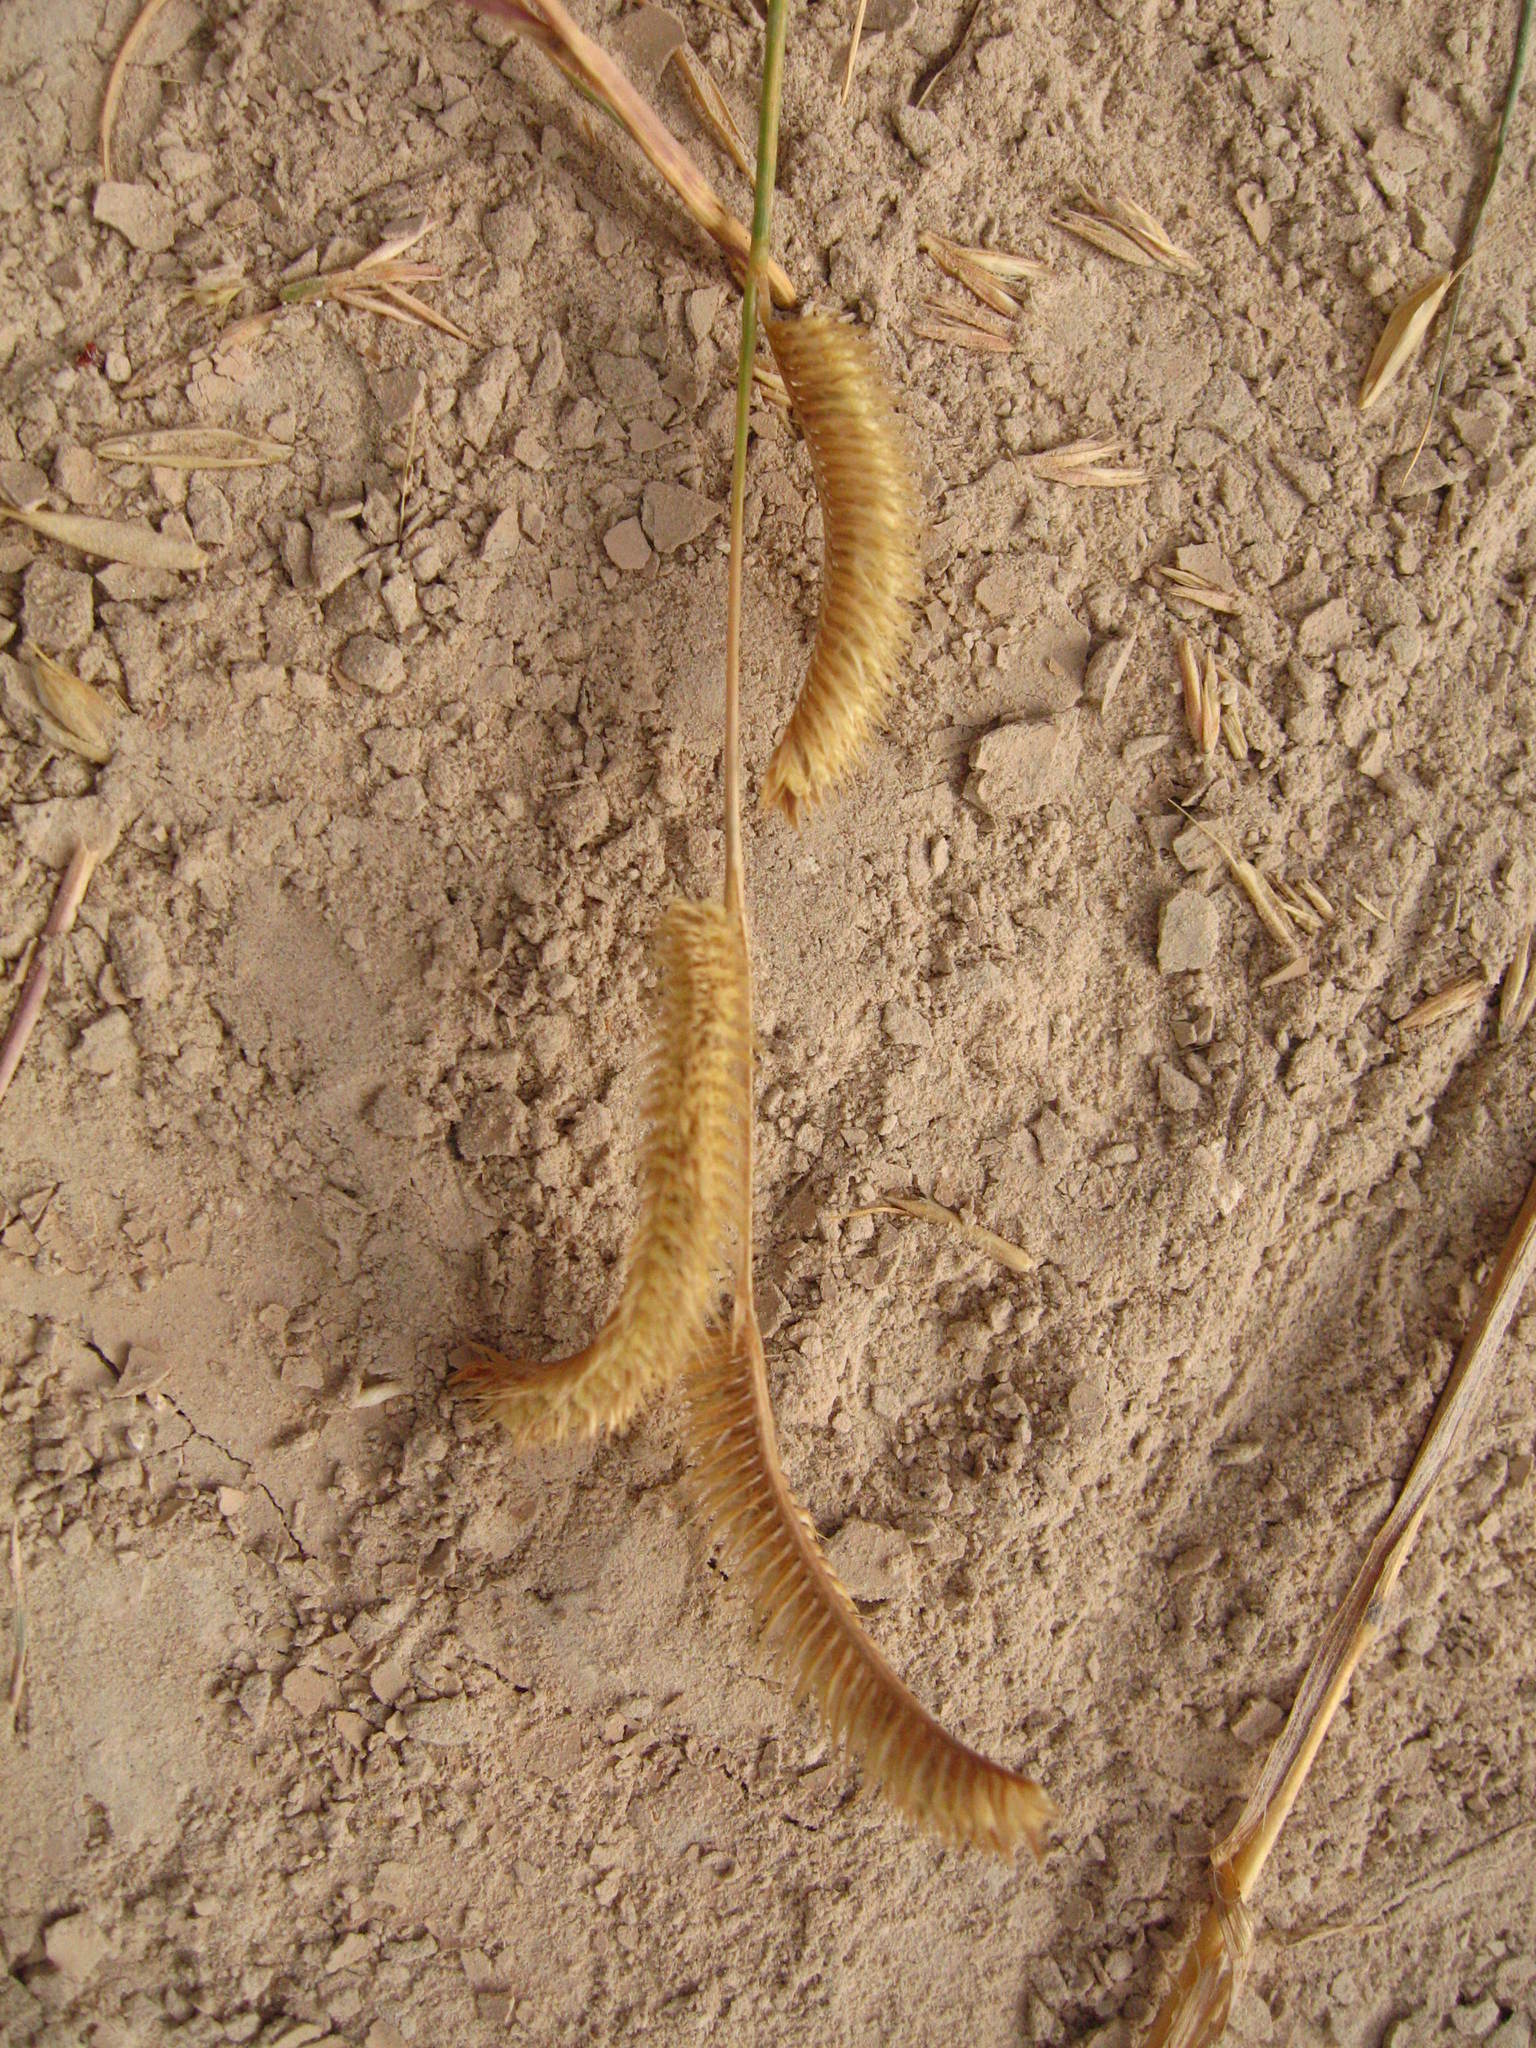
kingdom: Plantae
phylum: Tracheophyta
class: Liliopsida
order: Poales
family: Poaceae
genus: Bouteloua
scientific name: Bouteloua gracilis
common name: Blue grama
